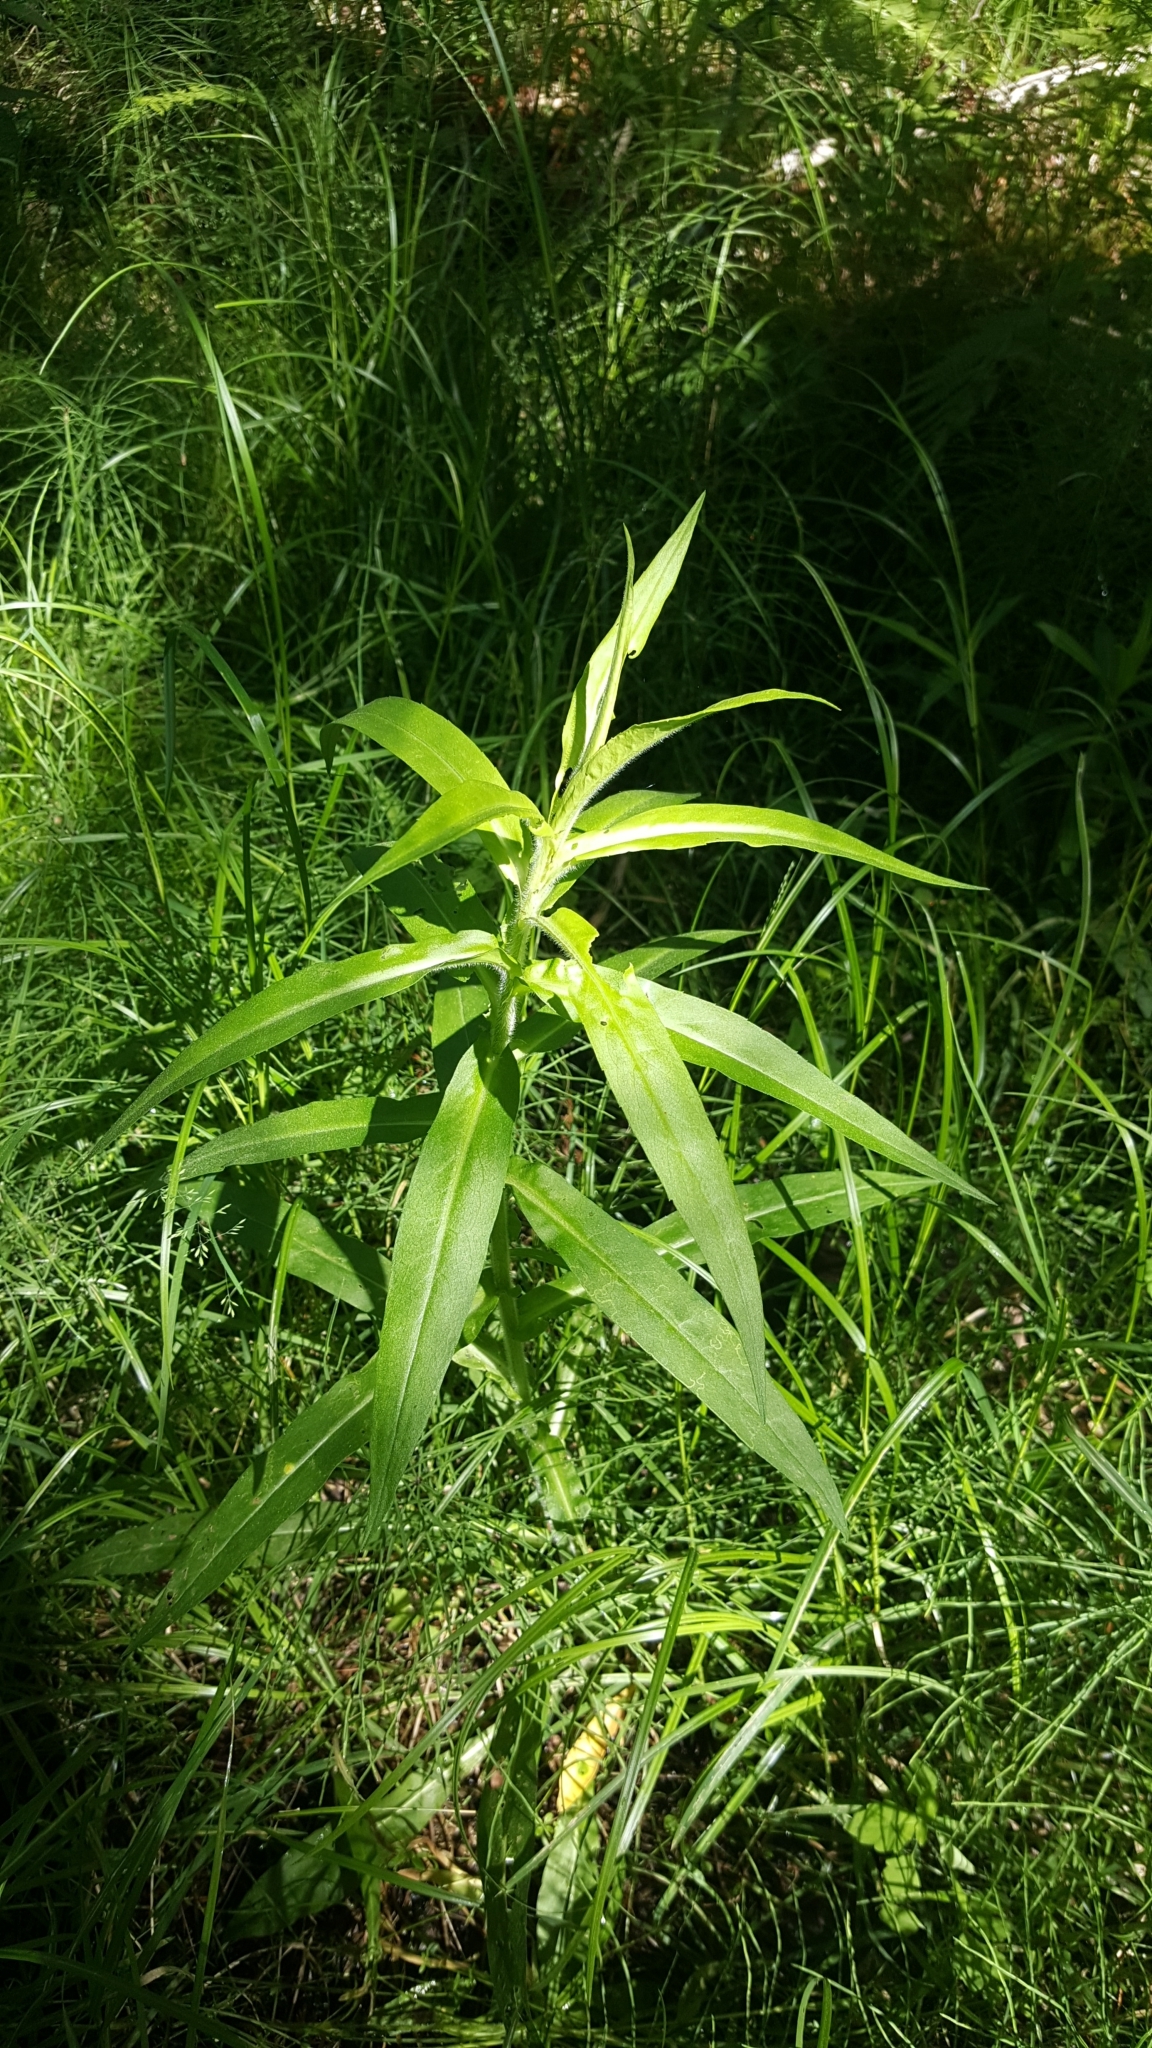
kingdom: Plantae
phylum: Tracheophyta
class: Magnoliopsida
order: Asterales
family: Asteraceae
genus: Symphyotrichum
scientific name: Symphyotrichum puniceum
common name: Bog aster
